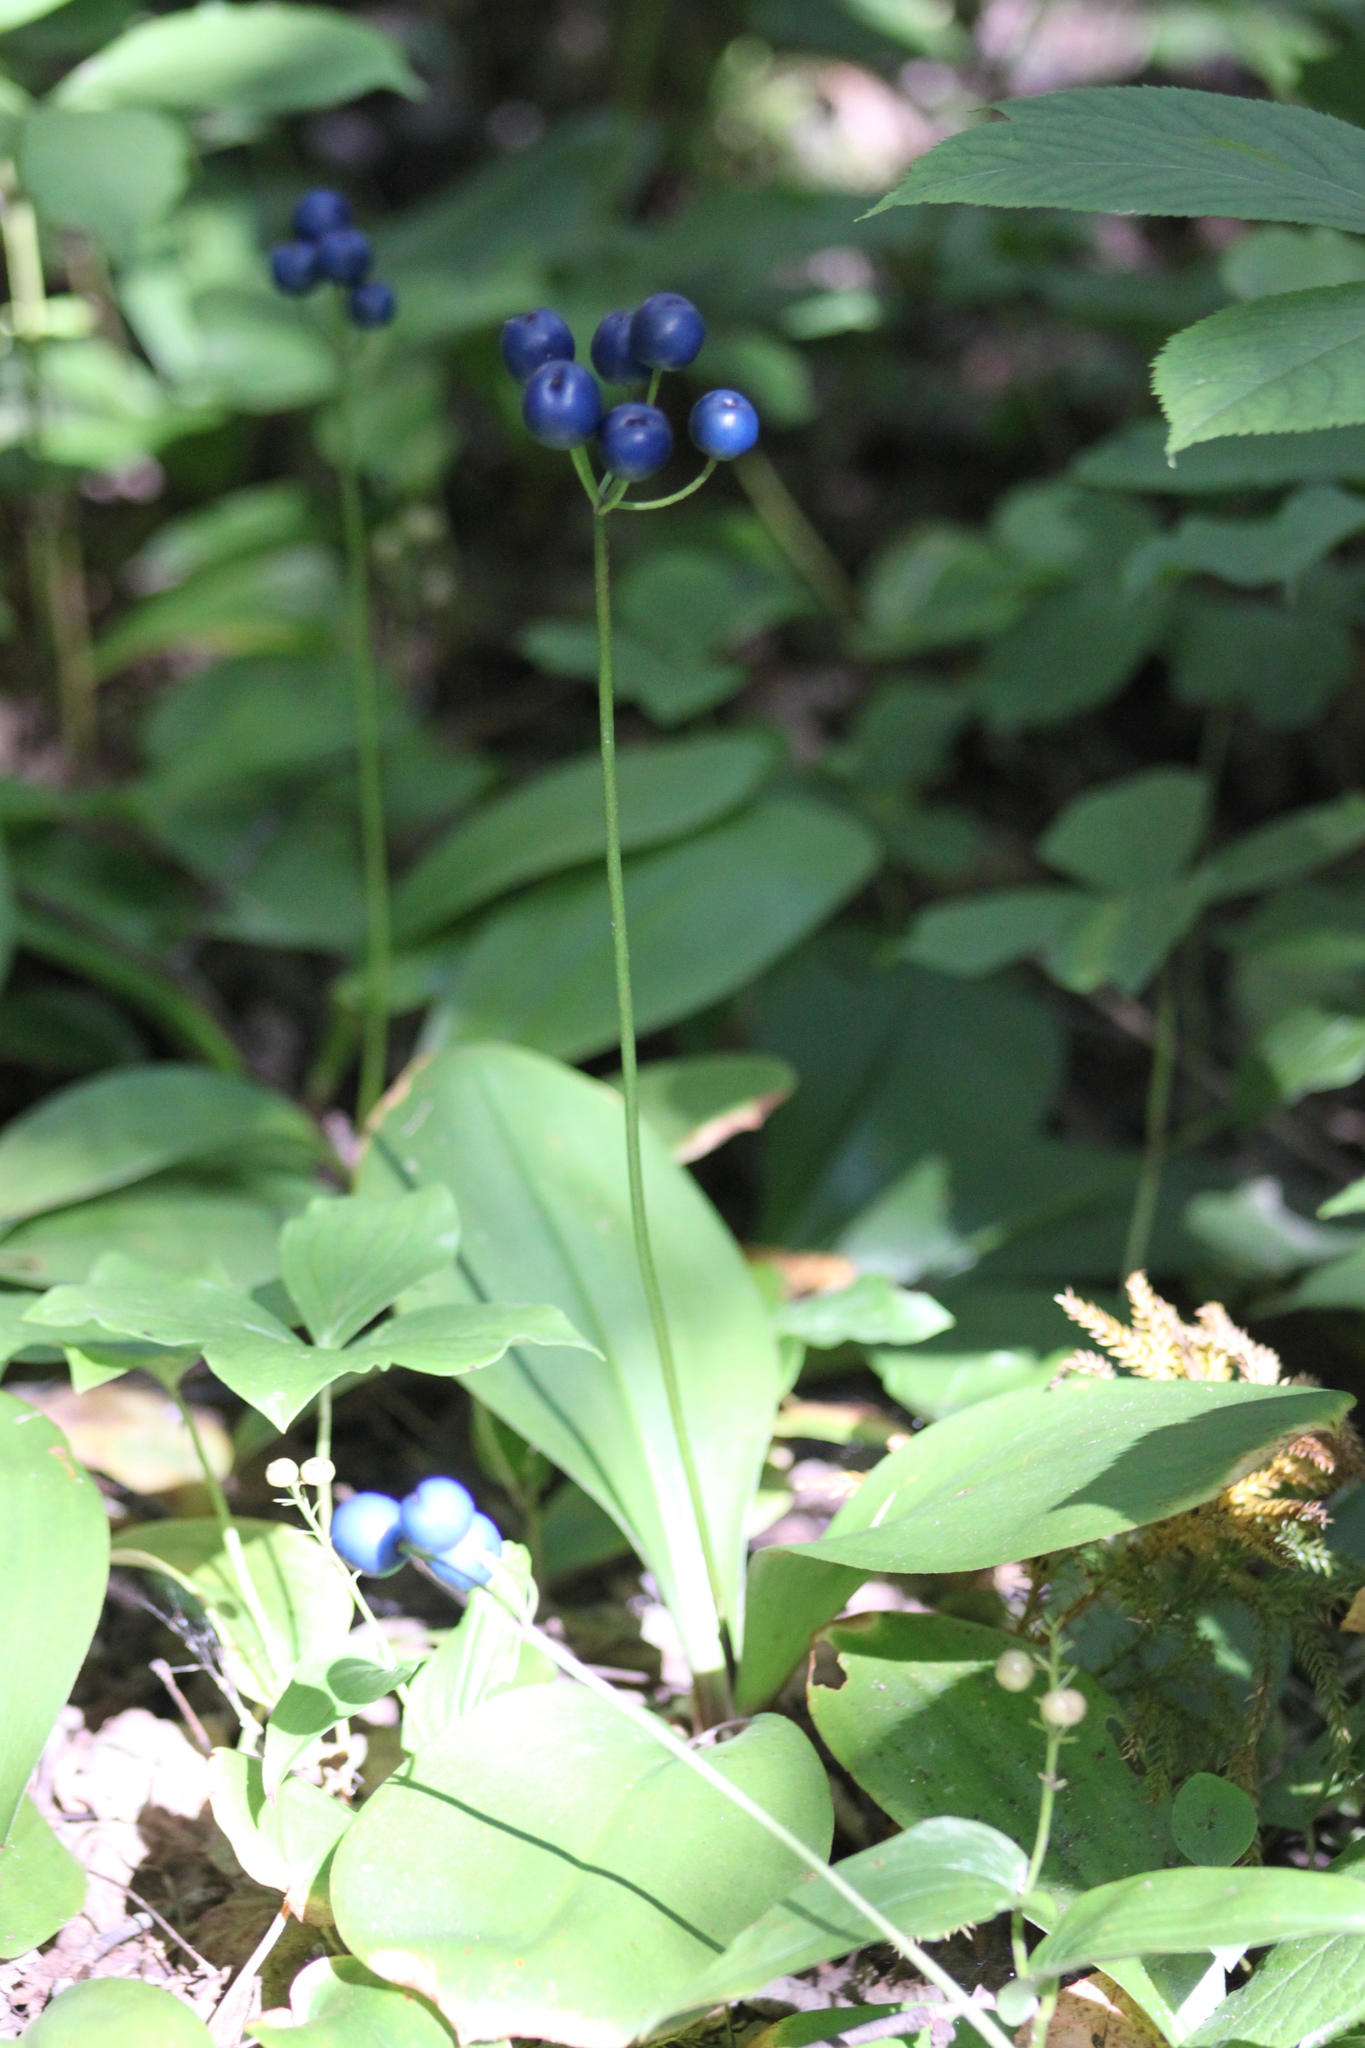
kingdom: Plantae
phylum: Tracheophyta
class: Liliopsida
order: Liliales
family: Liliaceae
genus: Clintonia
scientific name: Clintonia borealis
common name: Yellow clintonia
